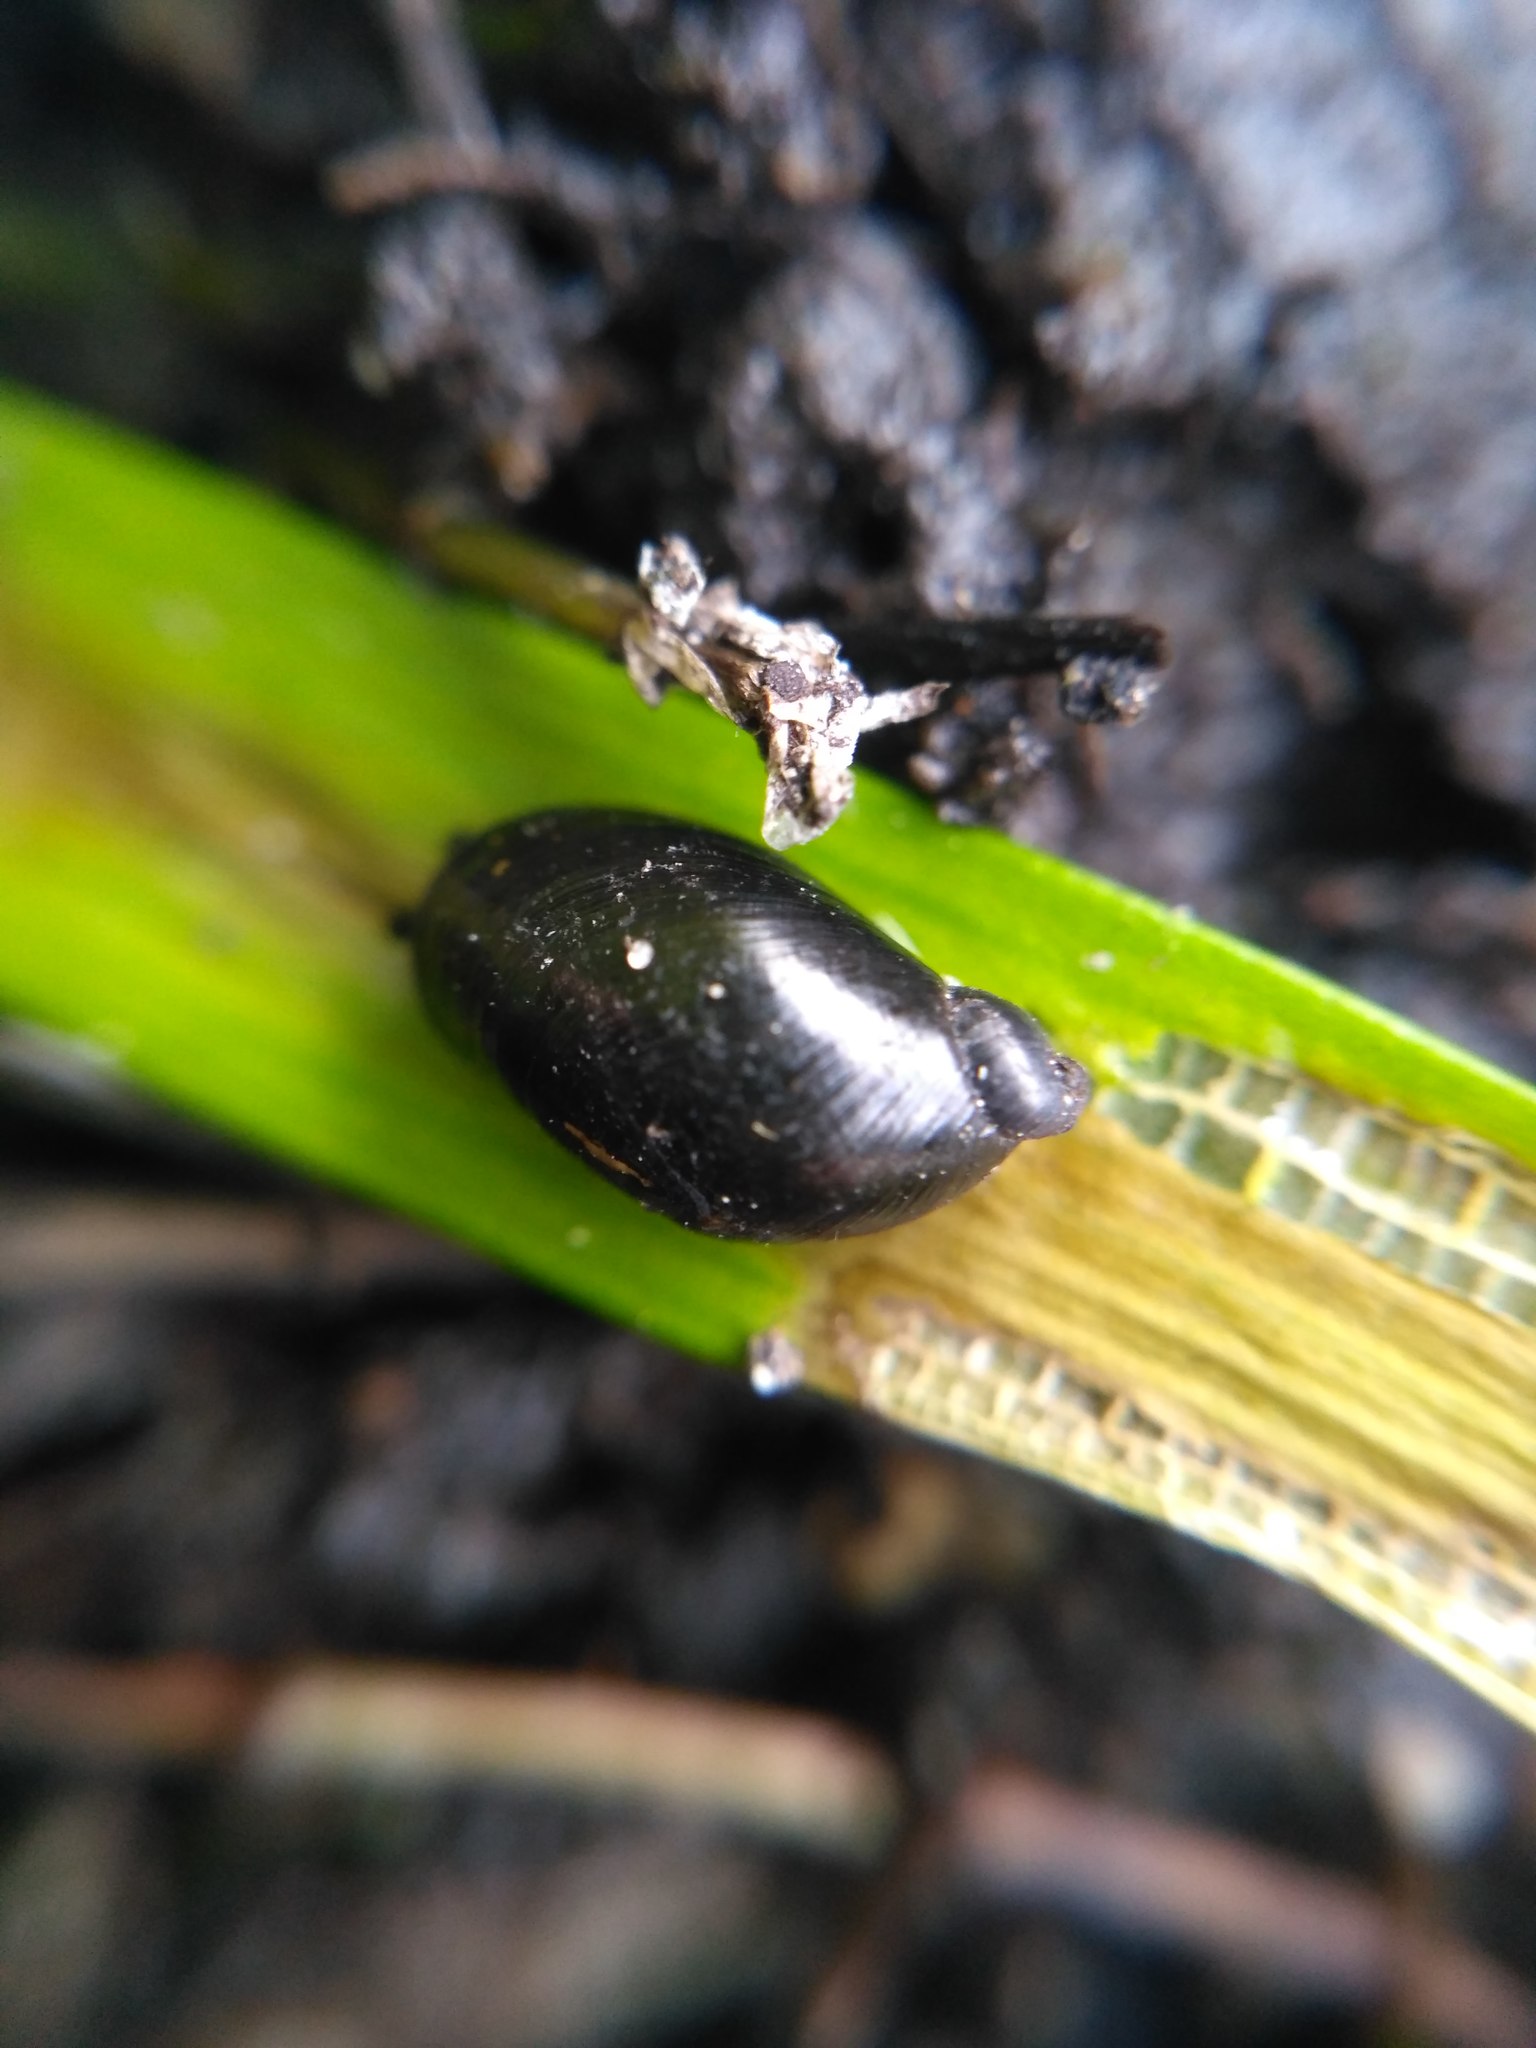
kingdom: Animalia
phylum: Mollusca
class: Gastropoda
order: Stylommatophora
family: Succineidae
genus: Oxyloma
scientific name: Oxyloma sarsii
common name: Slender amber snail
